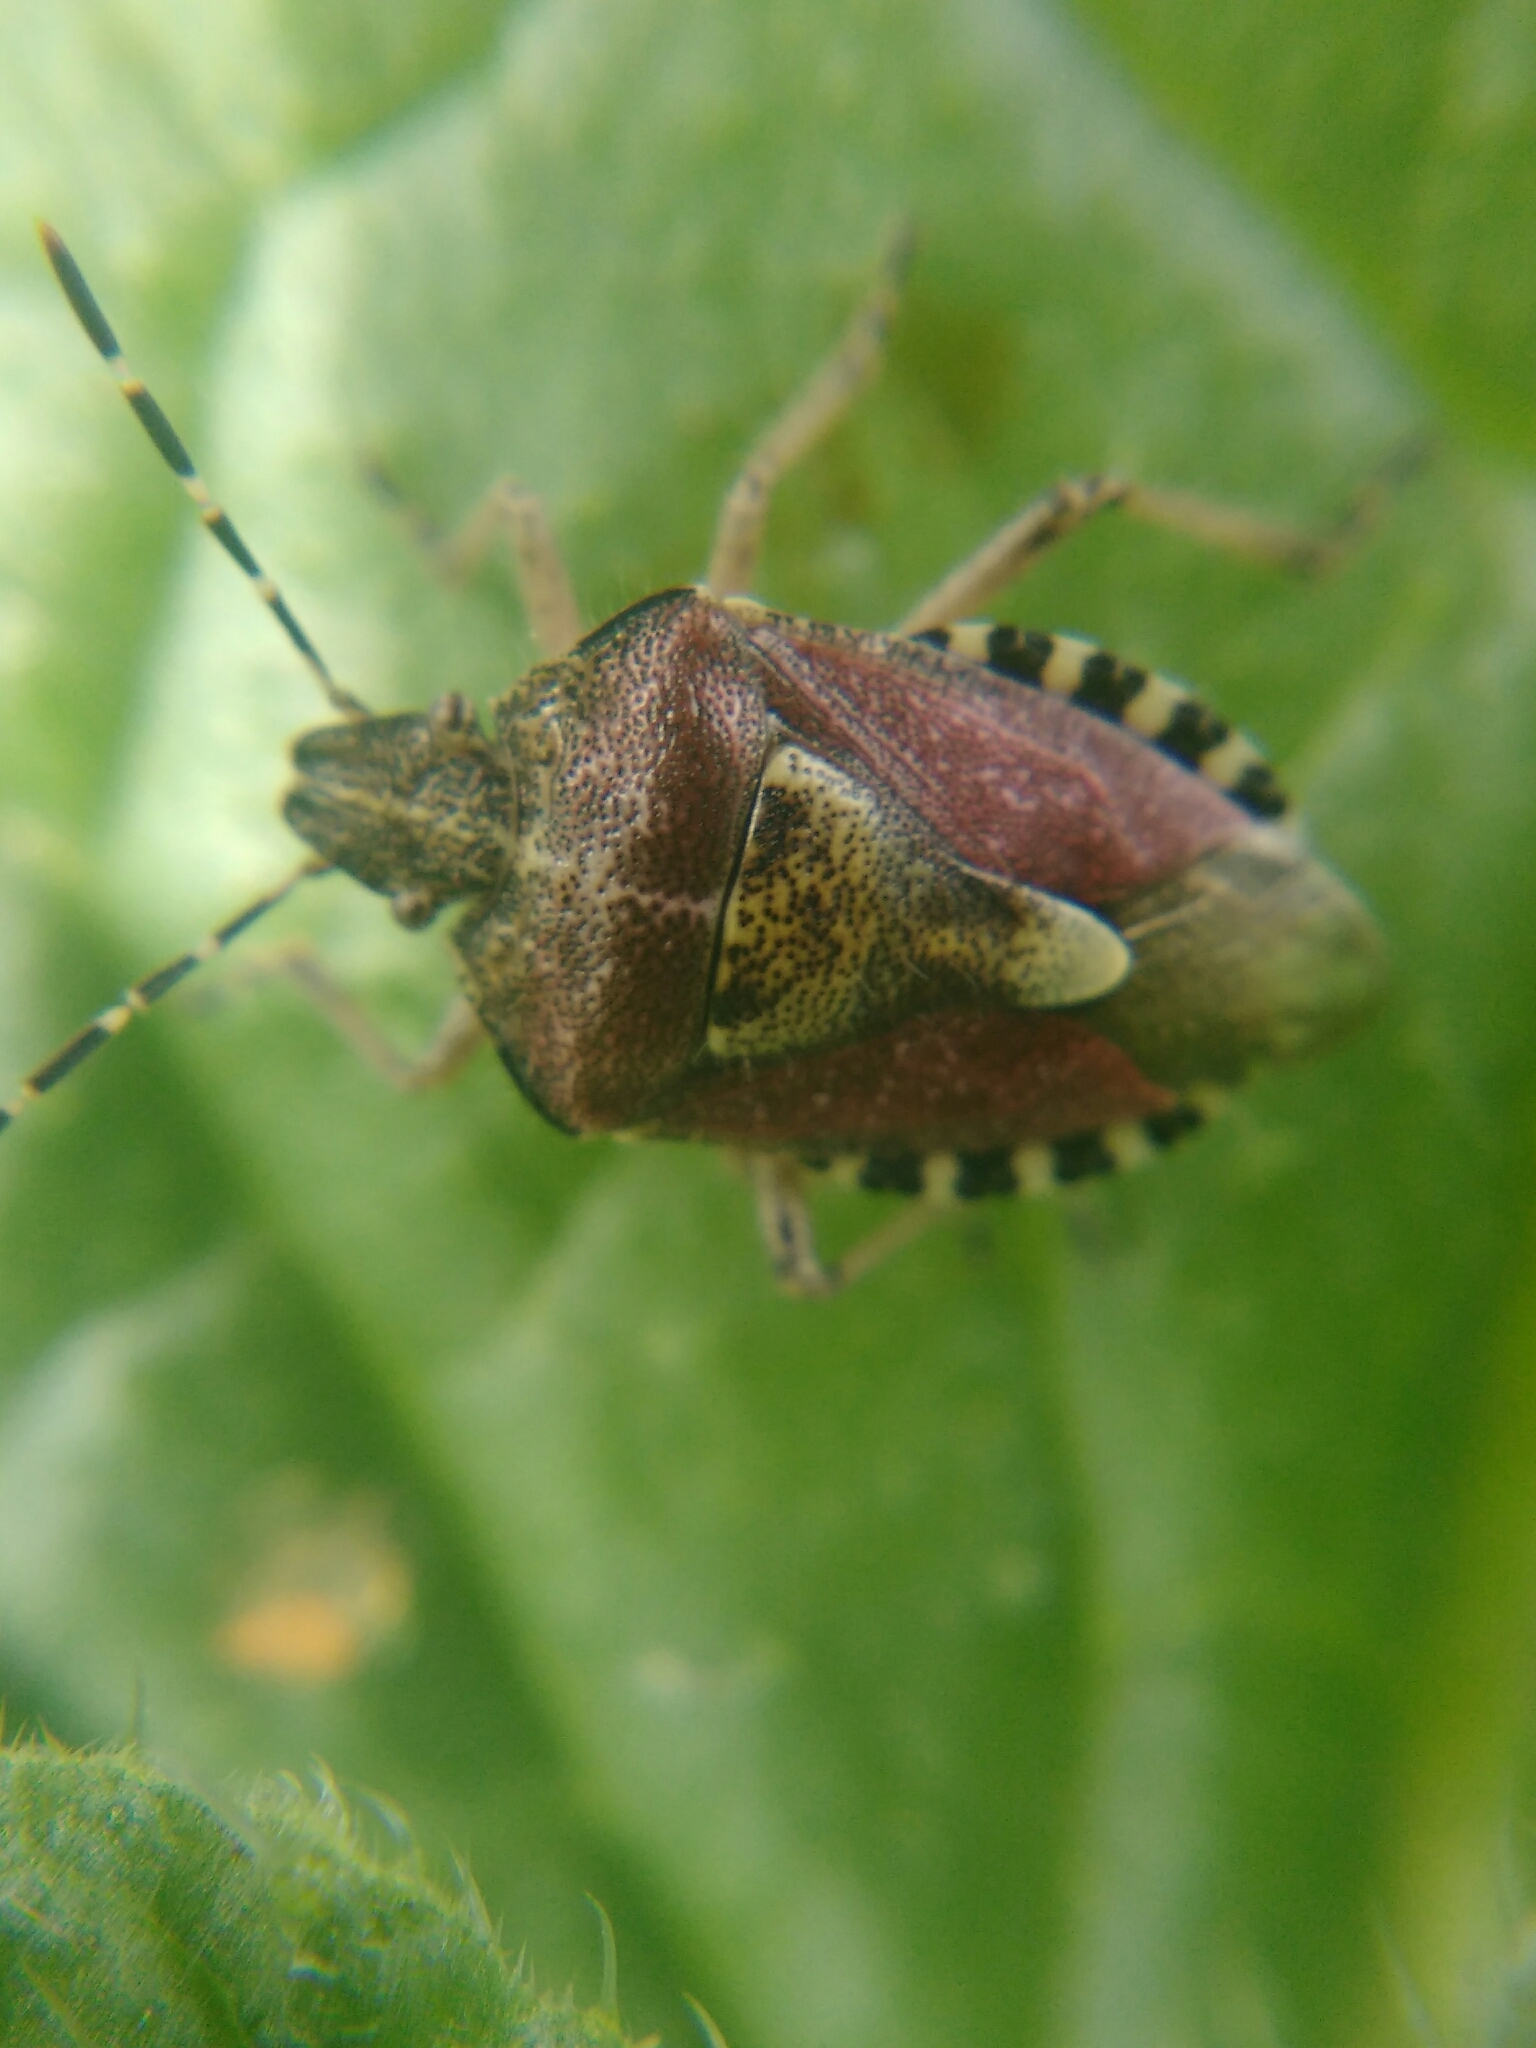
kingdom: Animalia
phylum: Arthropoda
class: Insecta
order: Hemiptera
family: Pentatomidae
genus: Dolycoris
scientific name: Dolycoris baccarum
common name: Sloe bug
